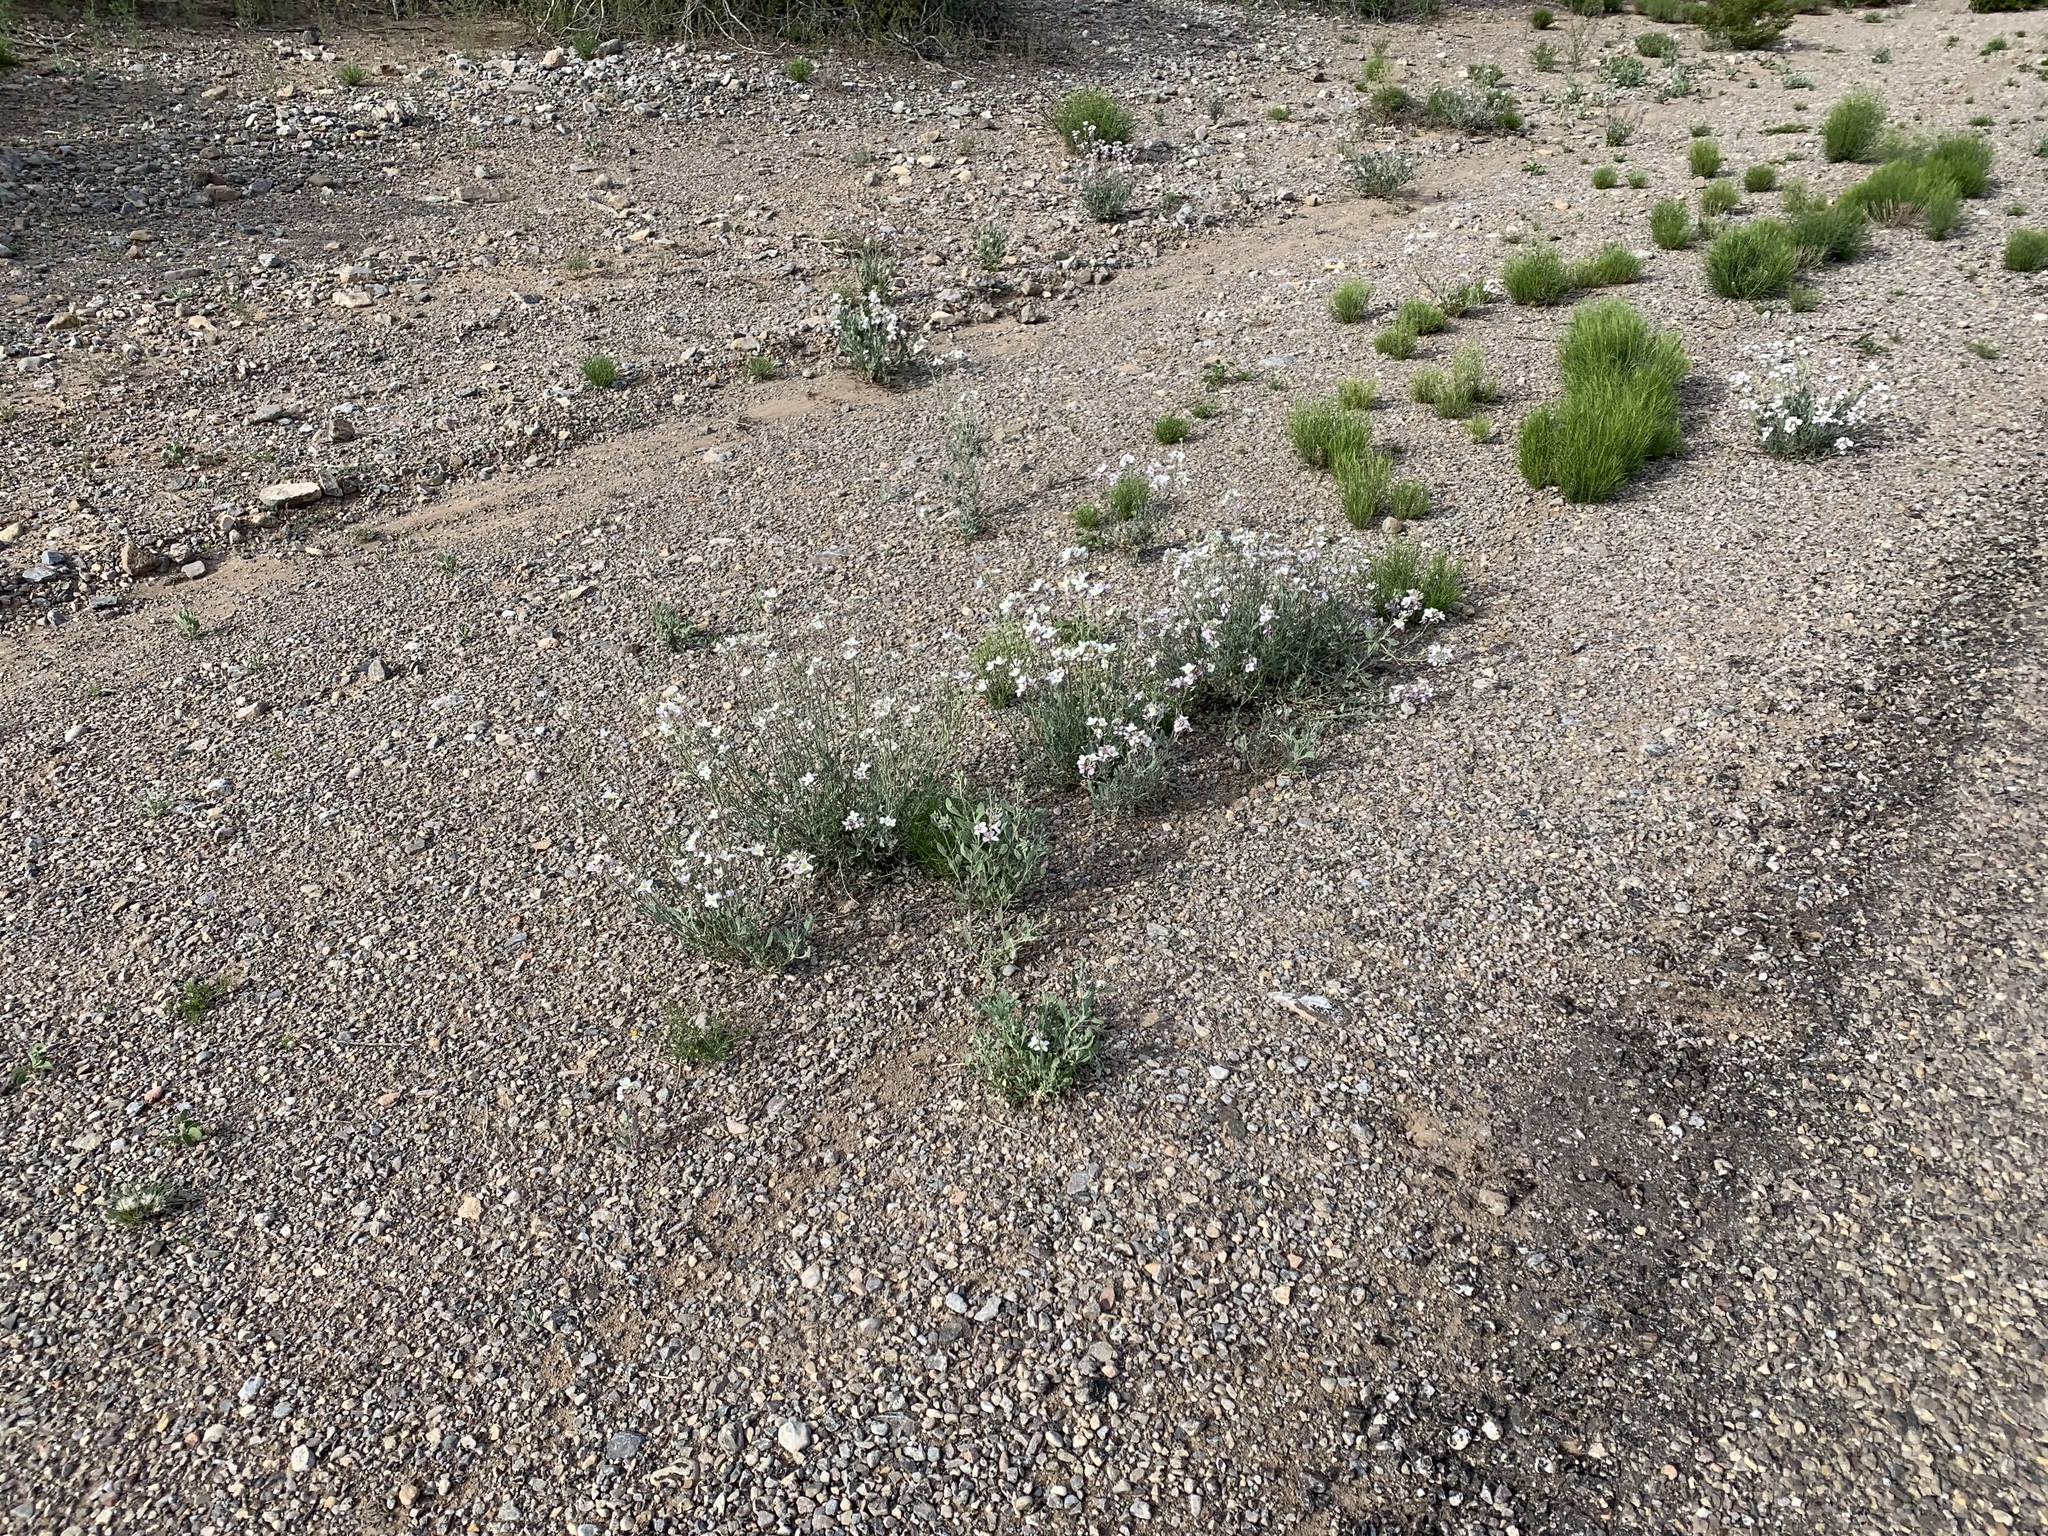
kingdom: Plantae
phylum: Tracheophyta
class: Magnoliopsida
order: Brassicales
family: Brassicaceae
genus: Nerisyrenia
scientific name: Nerisyrenia camporum
